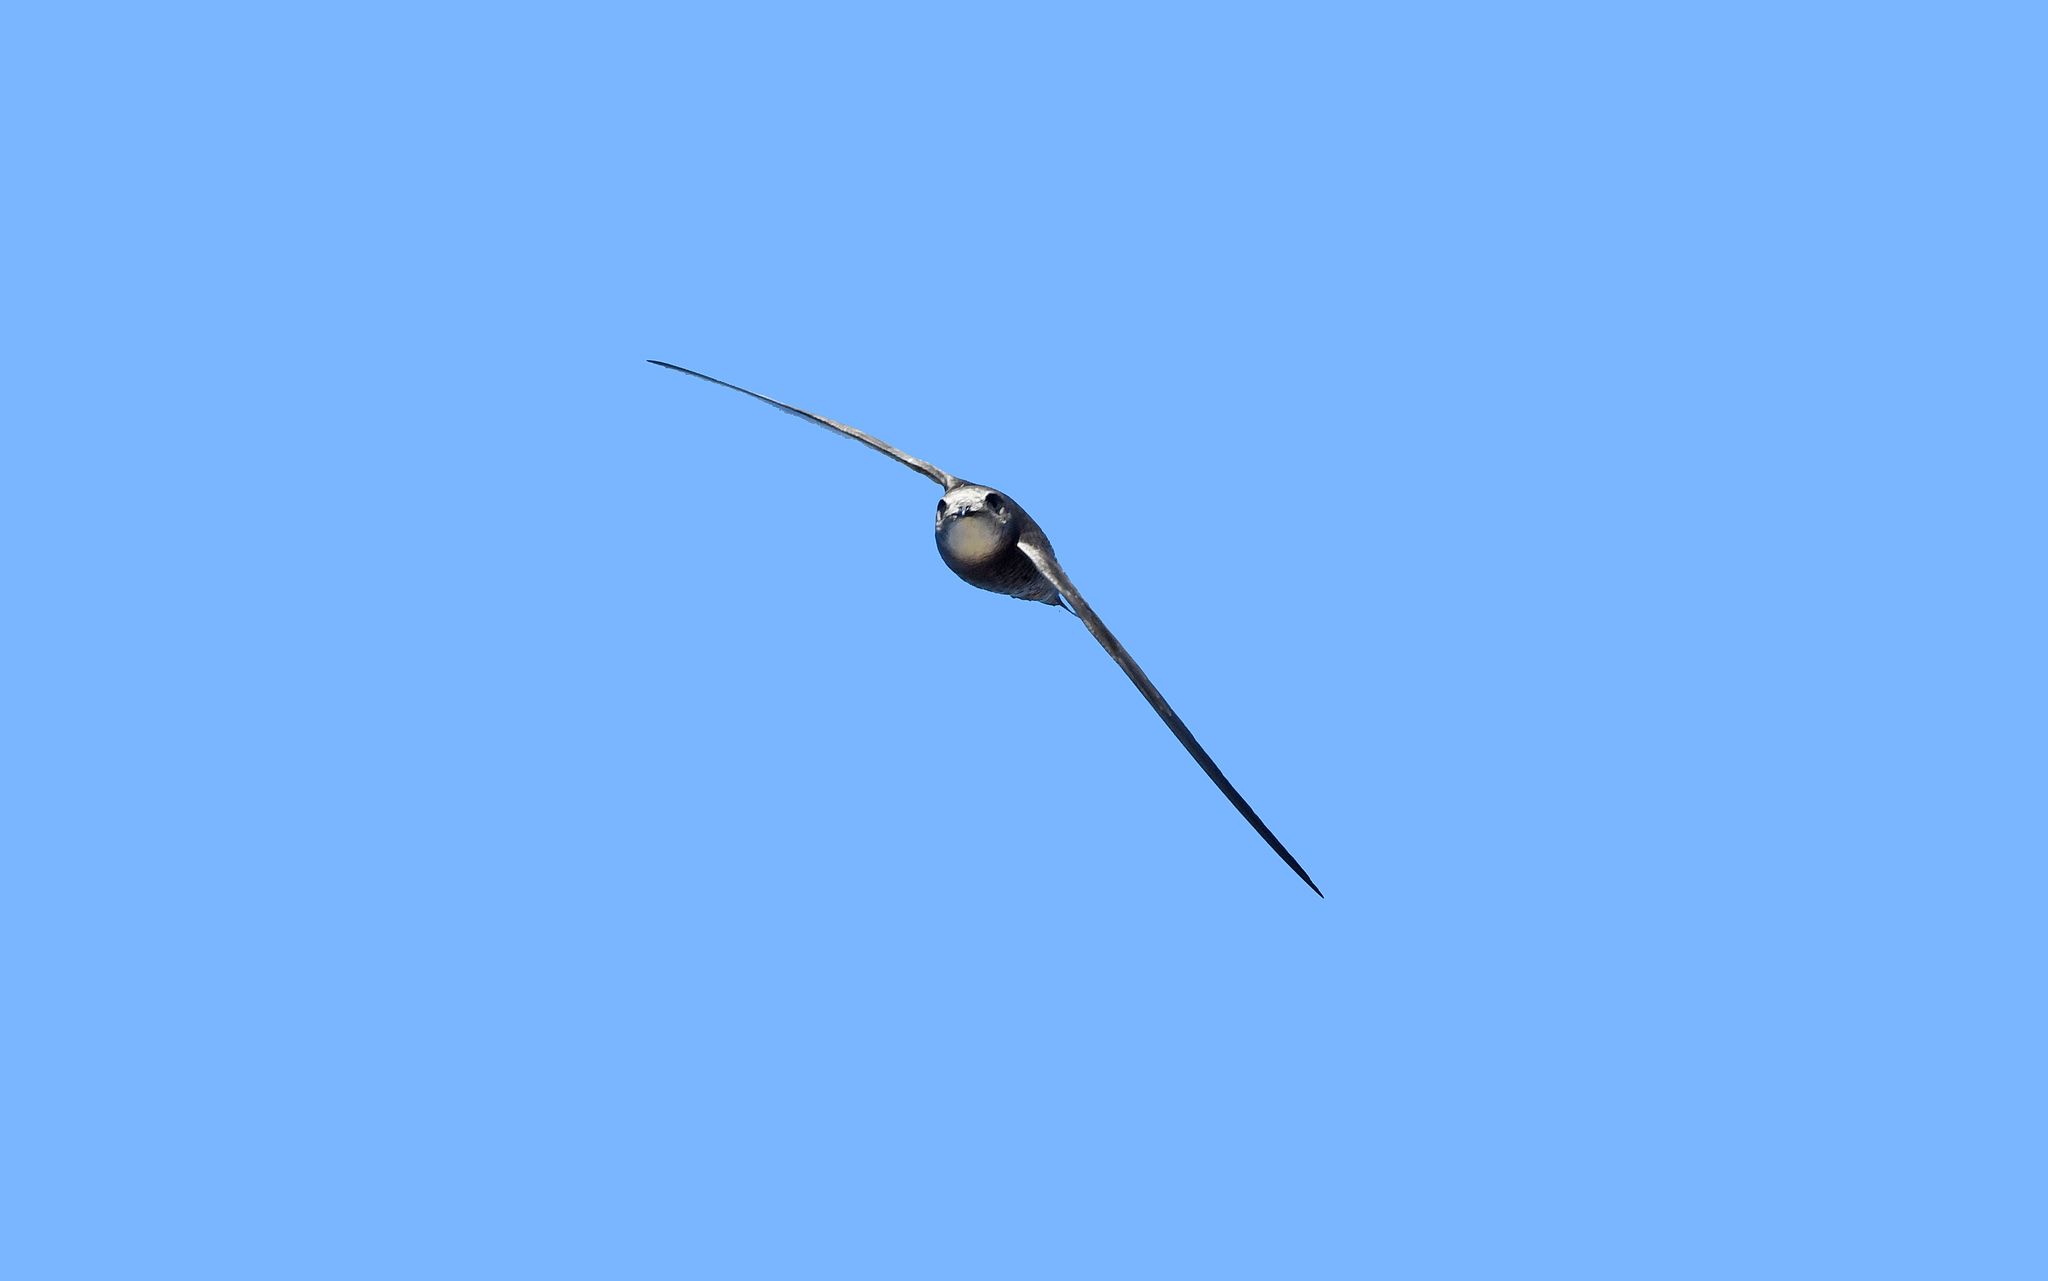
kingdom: Animalia
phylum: Chordata
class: Aves
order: Apodiformes
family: Apodidae
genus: Apus
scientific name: Apus pallidus
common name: Pallid swift
